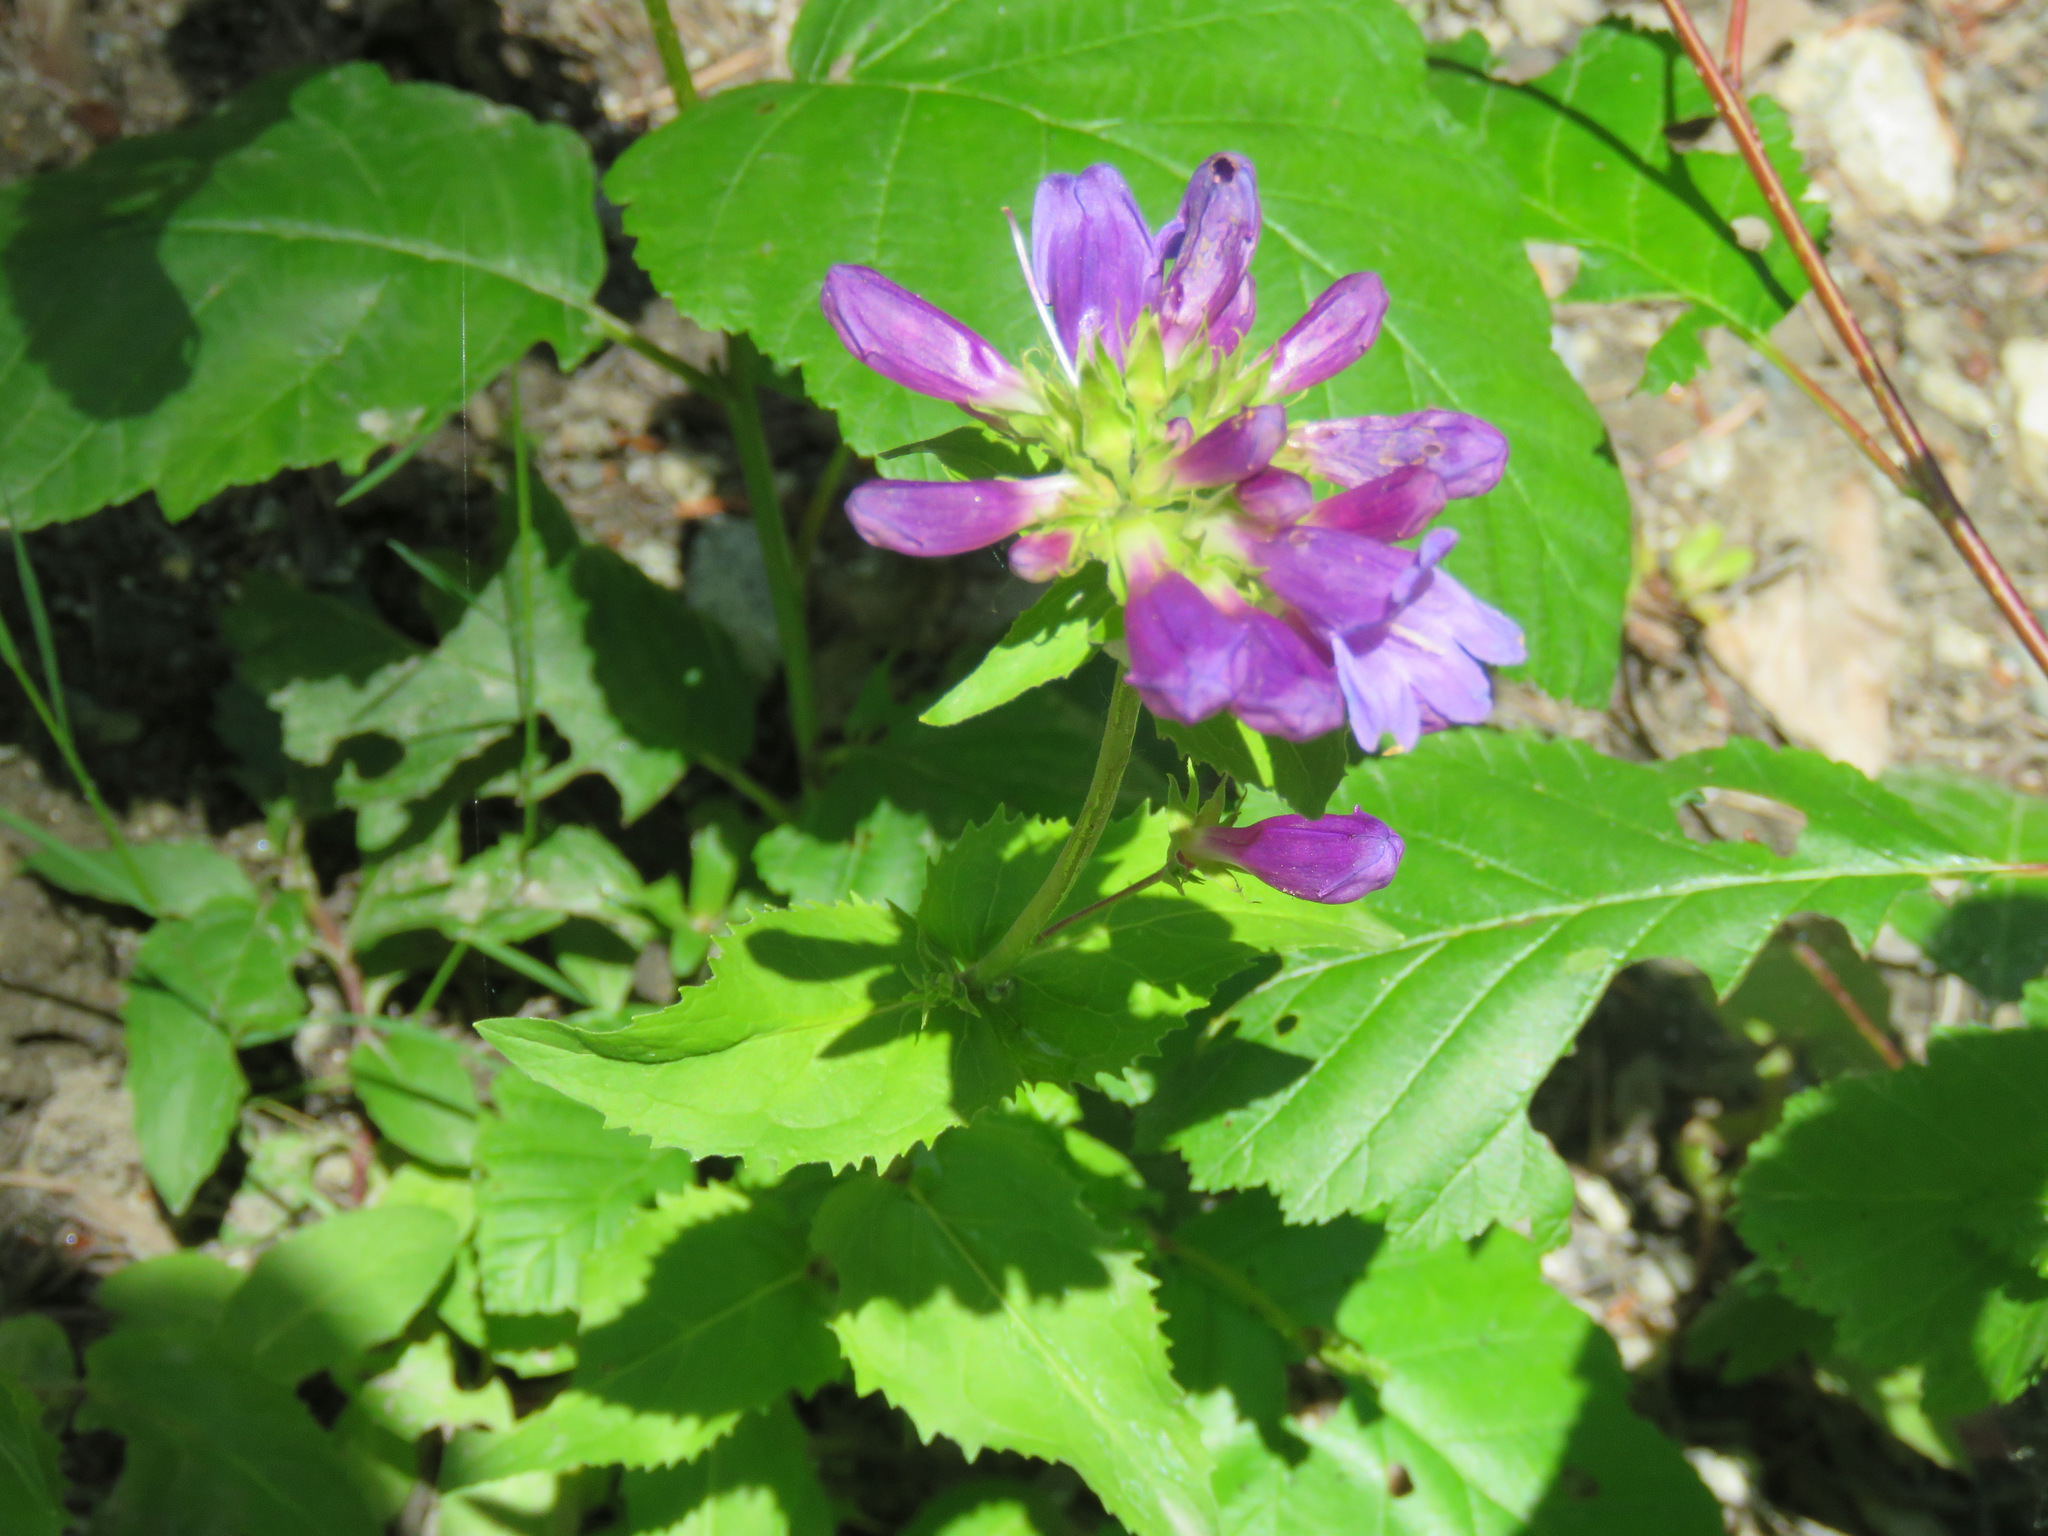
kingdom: Plantae
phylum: Tracheophyta
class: Magnoliopsida
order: Lamiales
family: Plantaginaceae
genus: Penstemon
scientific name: Penstemon serrulatus
